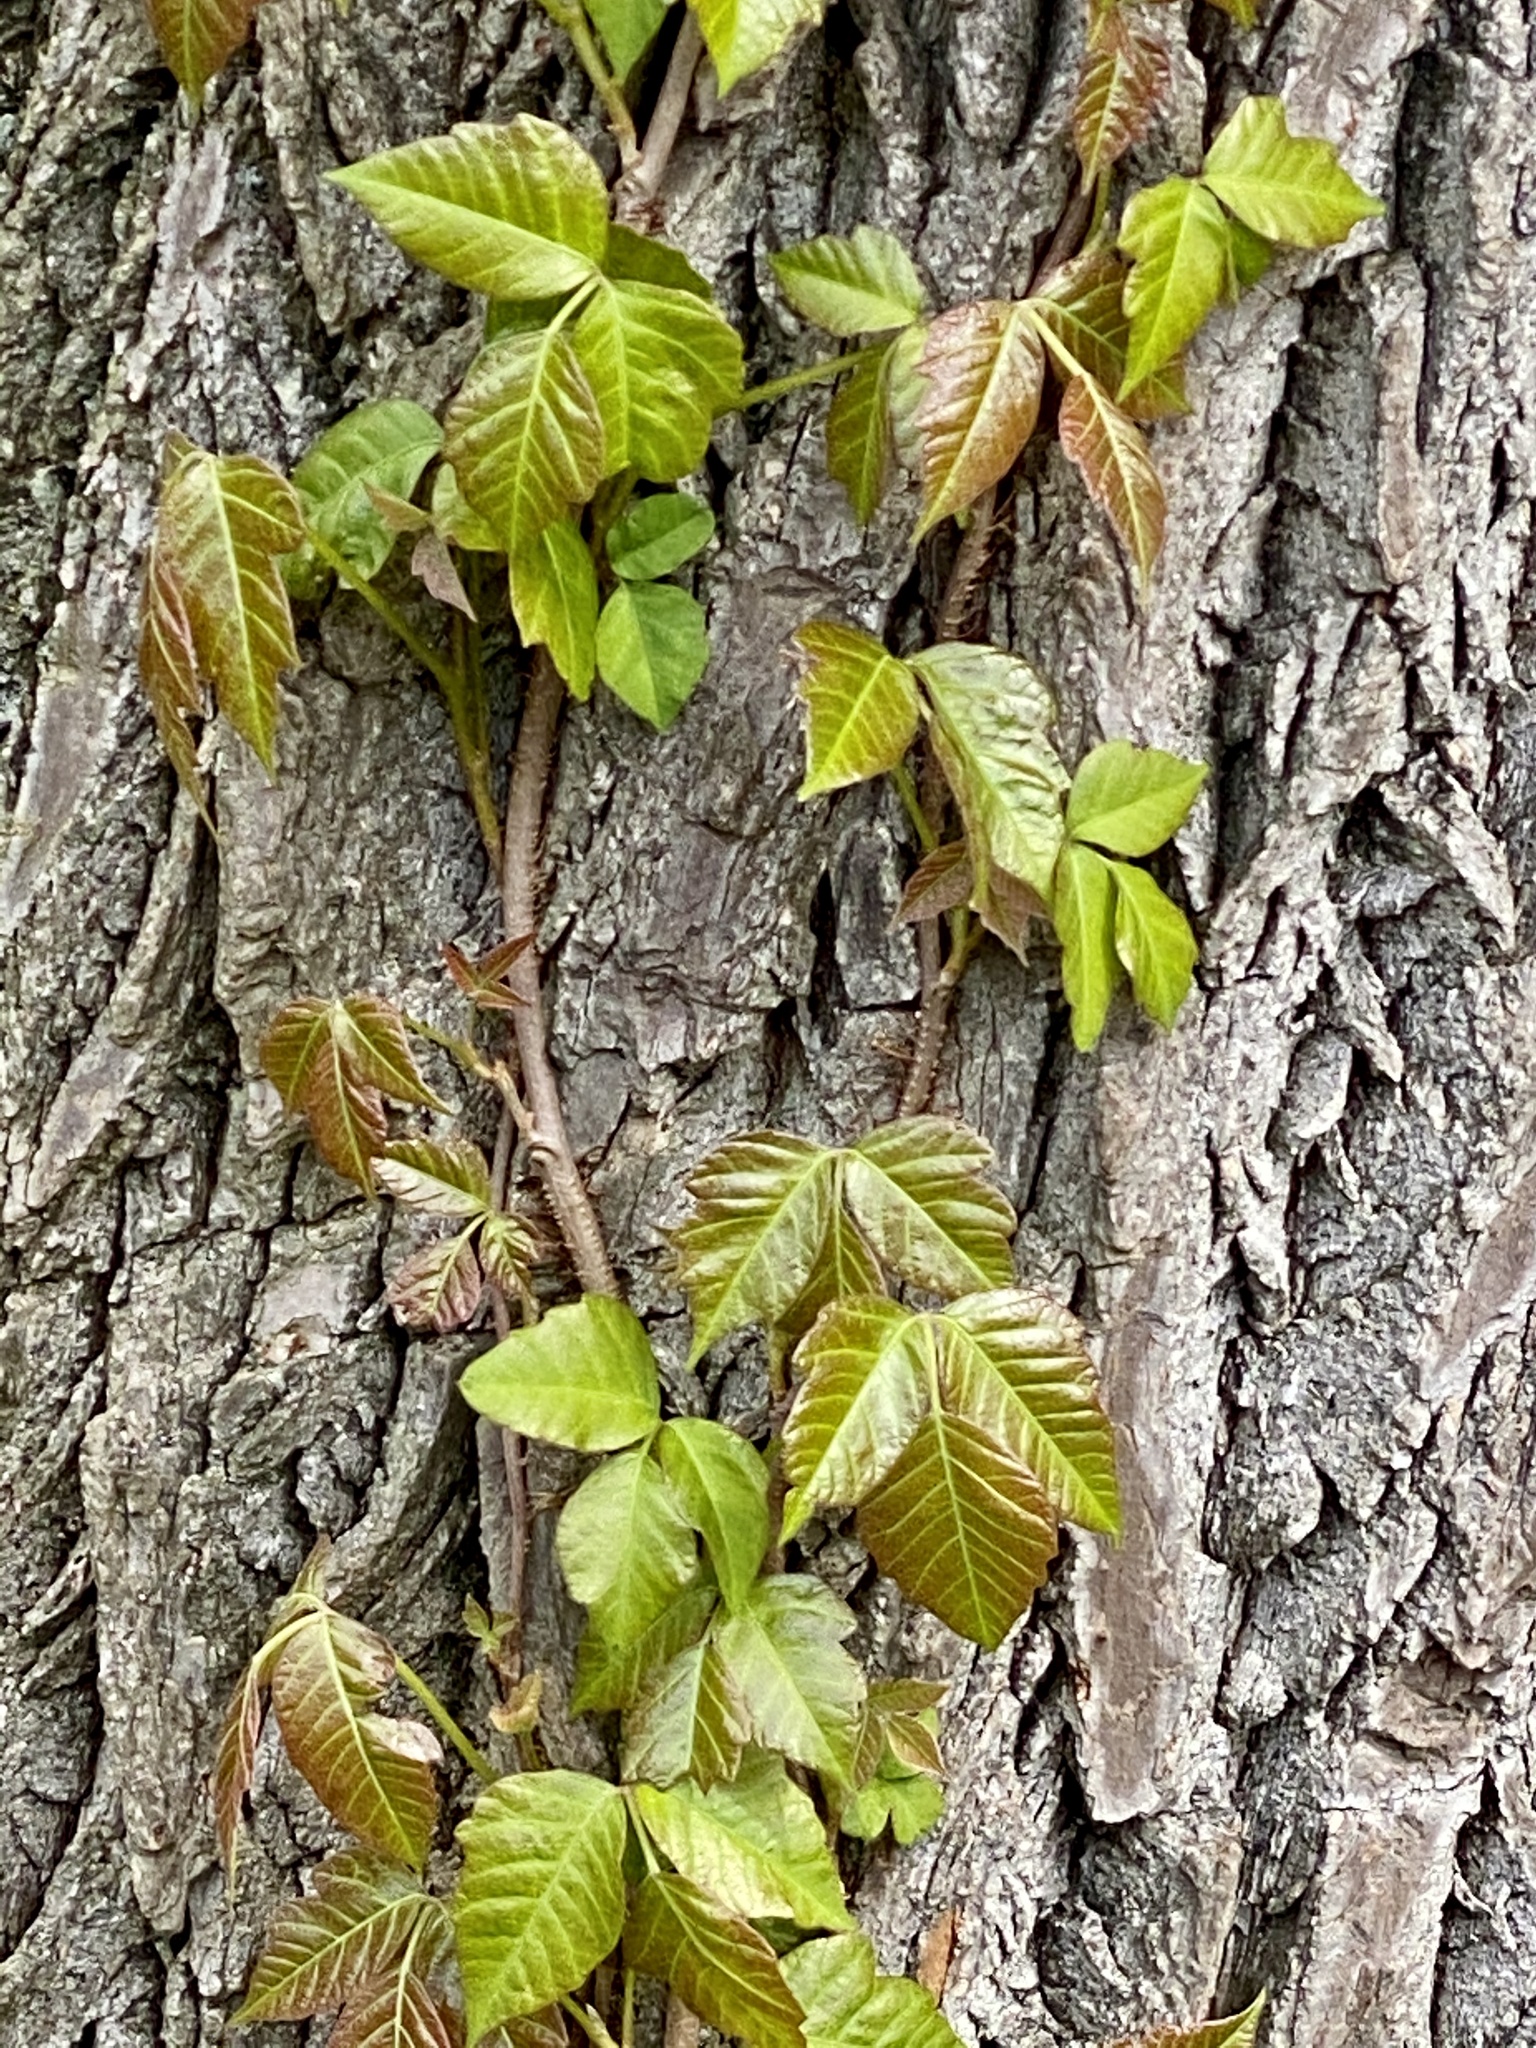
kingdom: Plantae
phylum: Tracheophyta
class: Magnoliopsida
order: Sapindales
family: Anacardiaceae
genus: Toxicodendron
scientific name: Toxicodendron radicans
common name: Poison ivy
